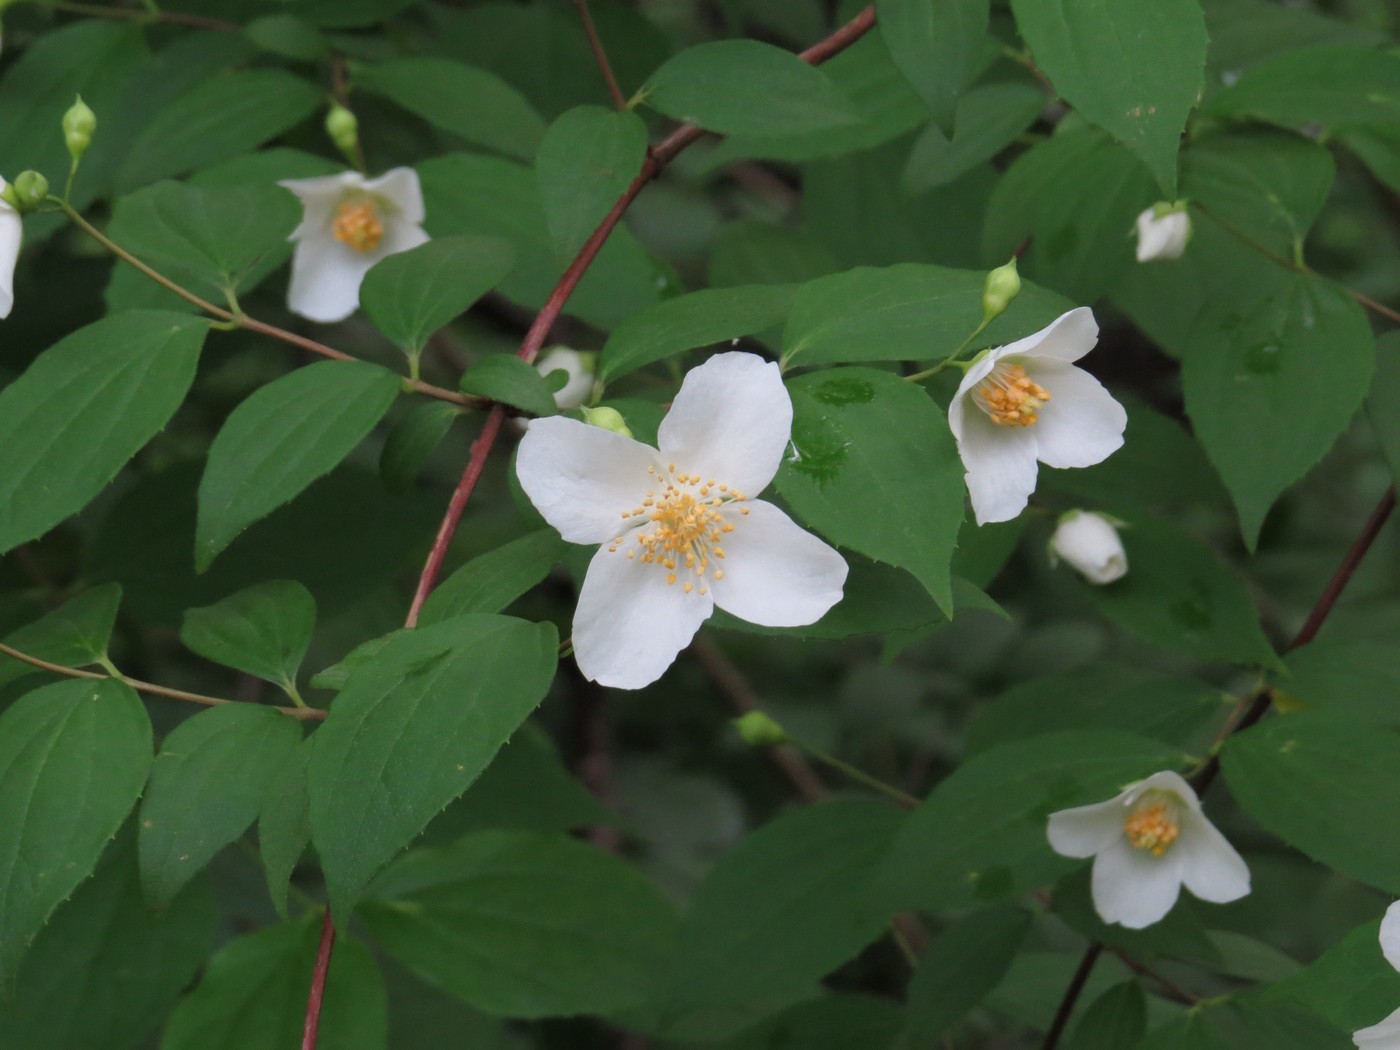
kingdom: Plantae
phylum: Tracheophyta
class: Magnoliopsida
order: Cornales
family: Hydrangeaceae
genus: Philadelphus
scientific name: Philadelphus inodorus
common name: Scentless mock-orange
